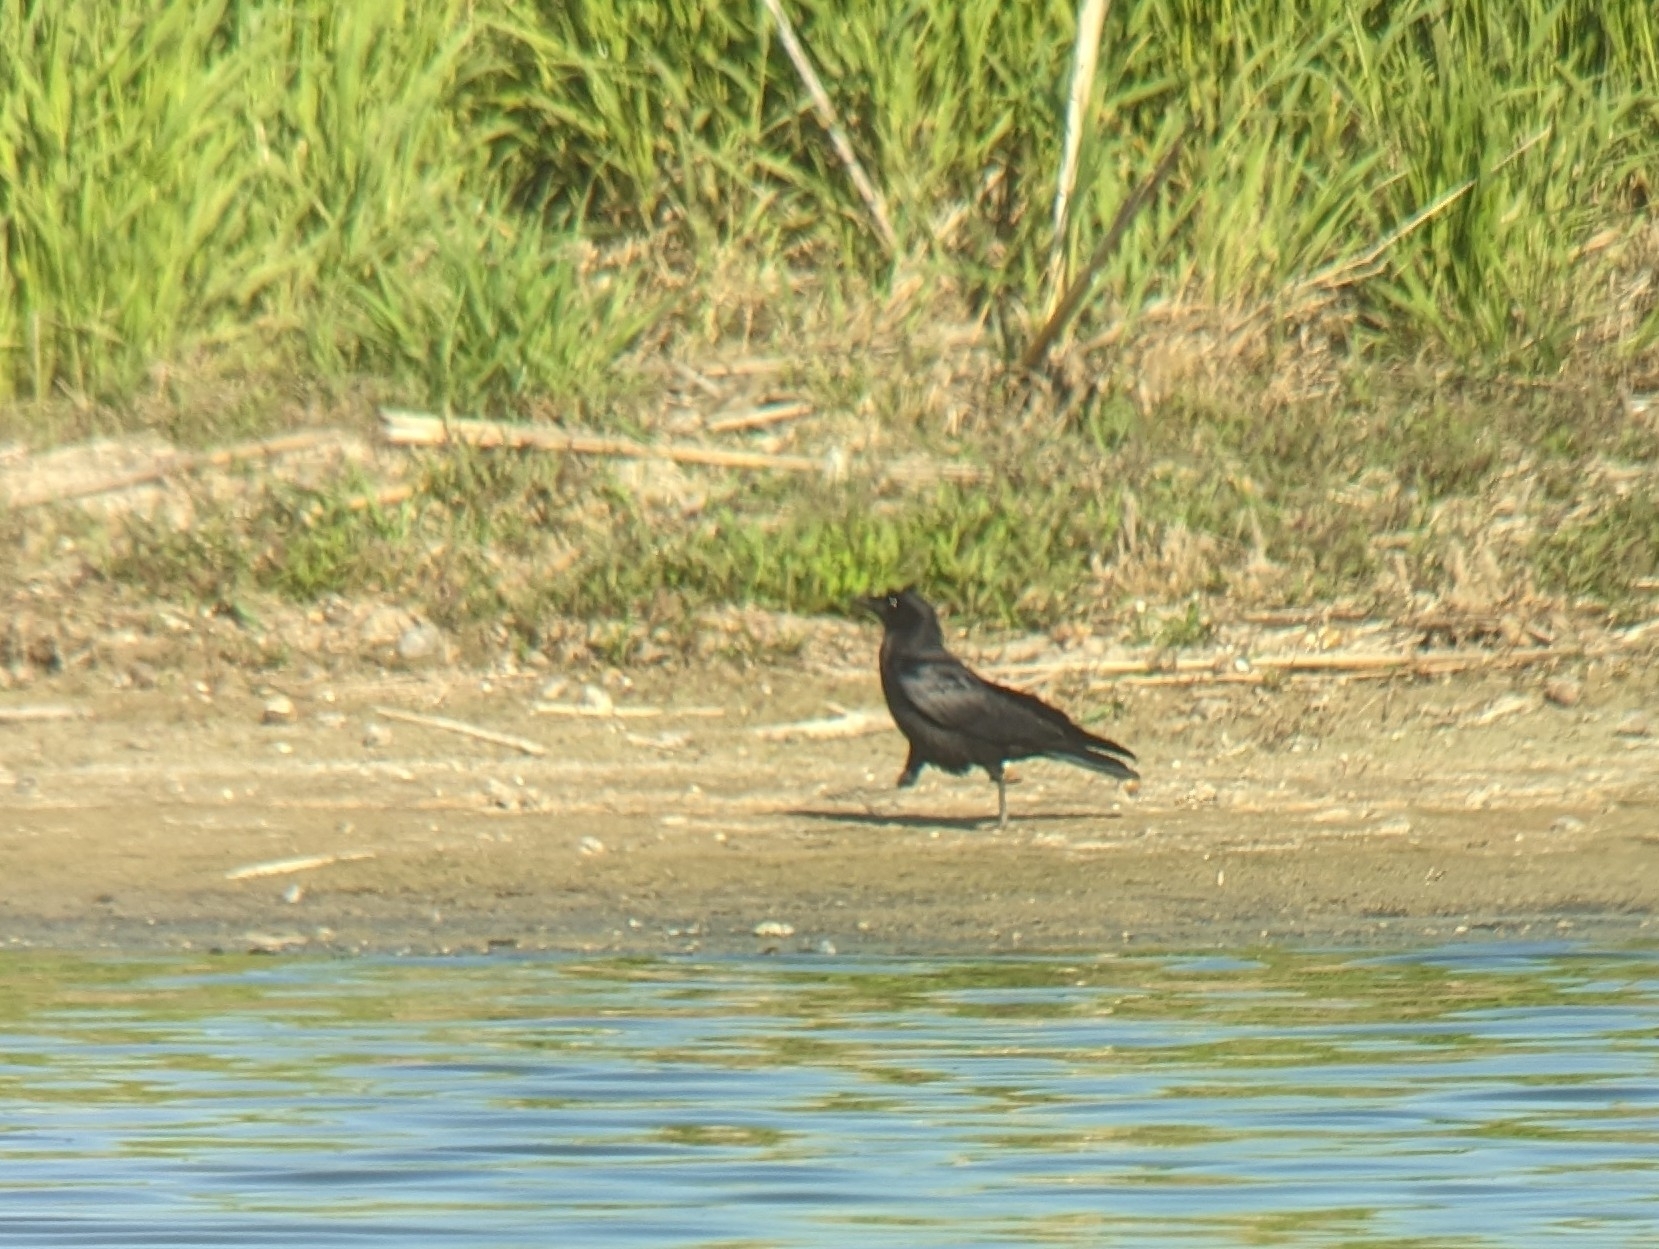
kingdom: Animalia
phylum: Chordata
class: Aves
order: Passeriformes
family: Corvidae
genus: Corvus
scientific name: Corvus brachyrhynchos
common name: American crow
